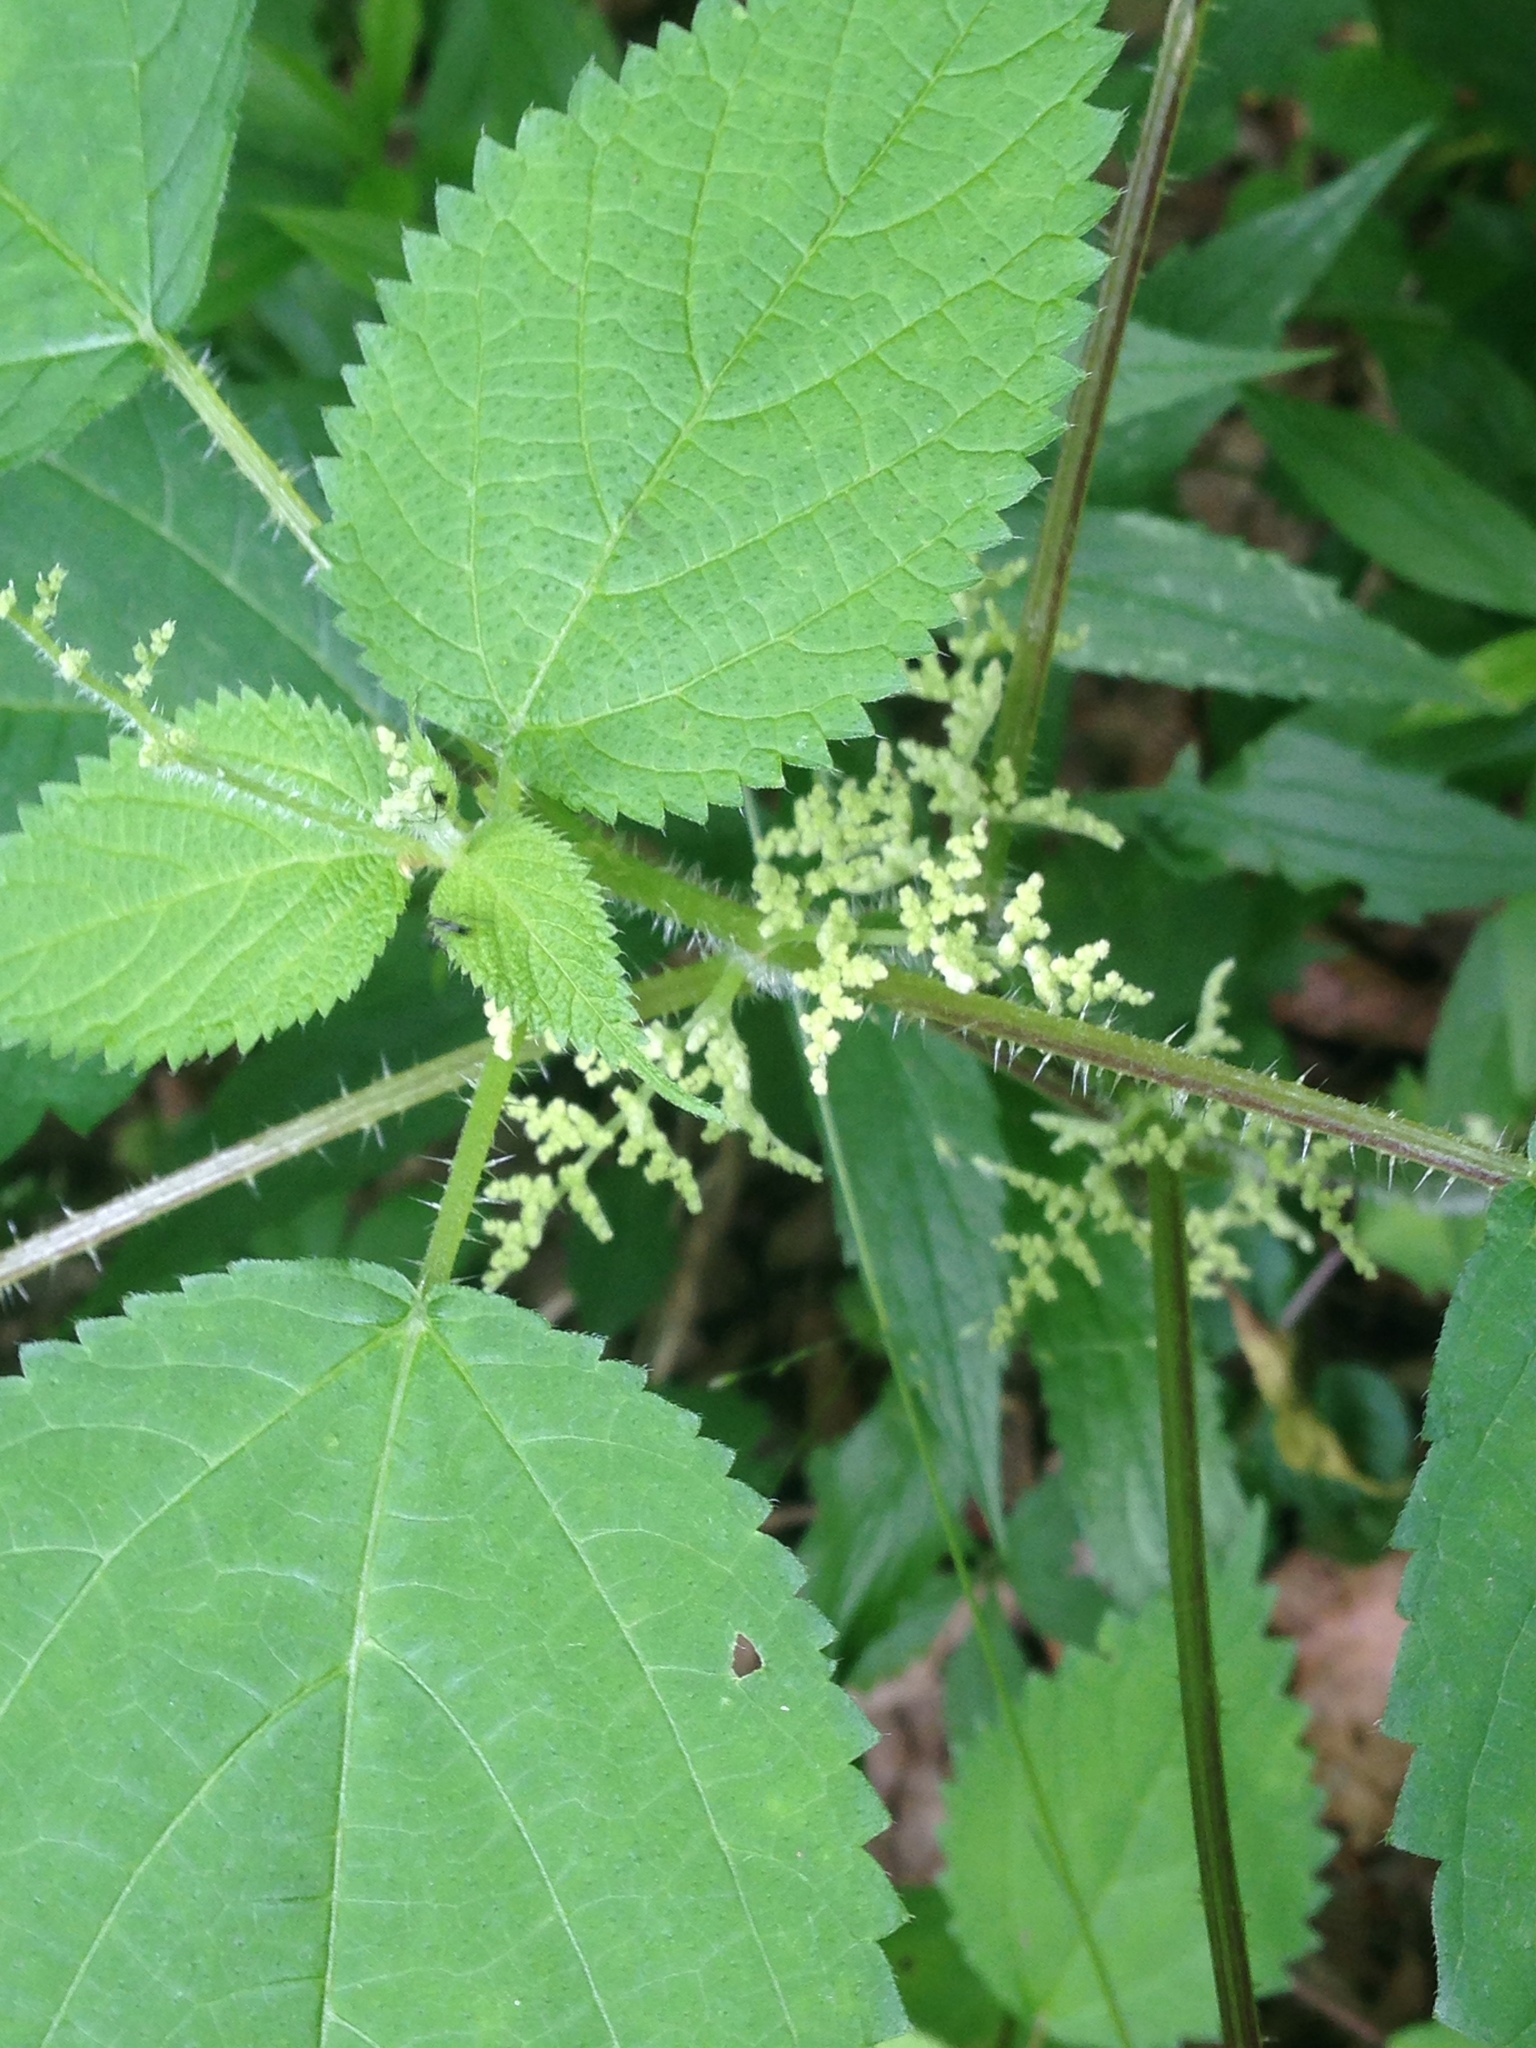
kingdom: Plantae
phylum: Tracheophyta
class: Magnoliopsida
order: Rosales
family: Urticaceae
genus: Laportea
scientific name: Laportea canadensis
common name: Canada nettle
